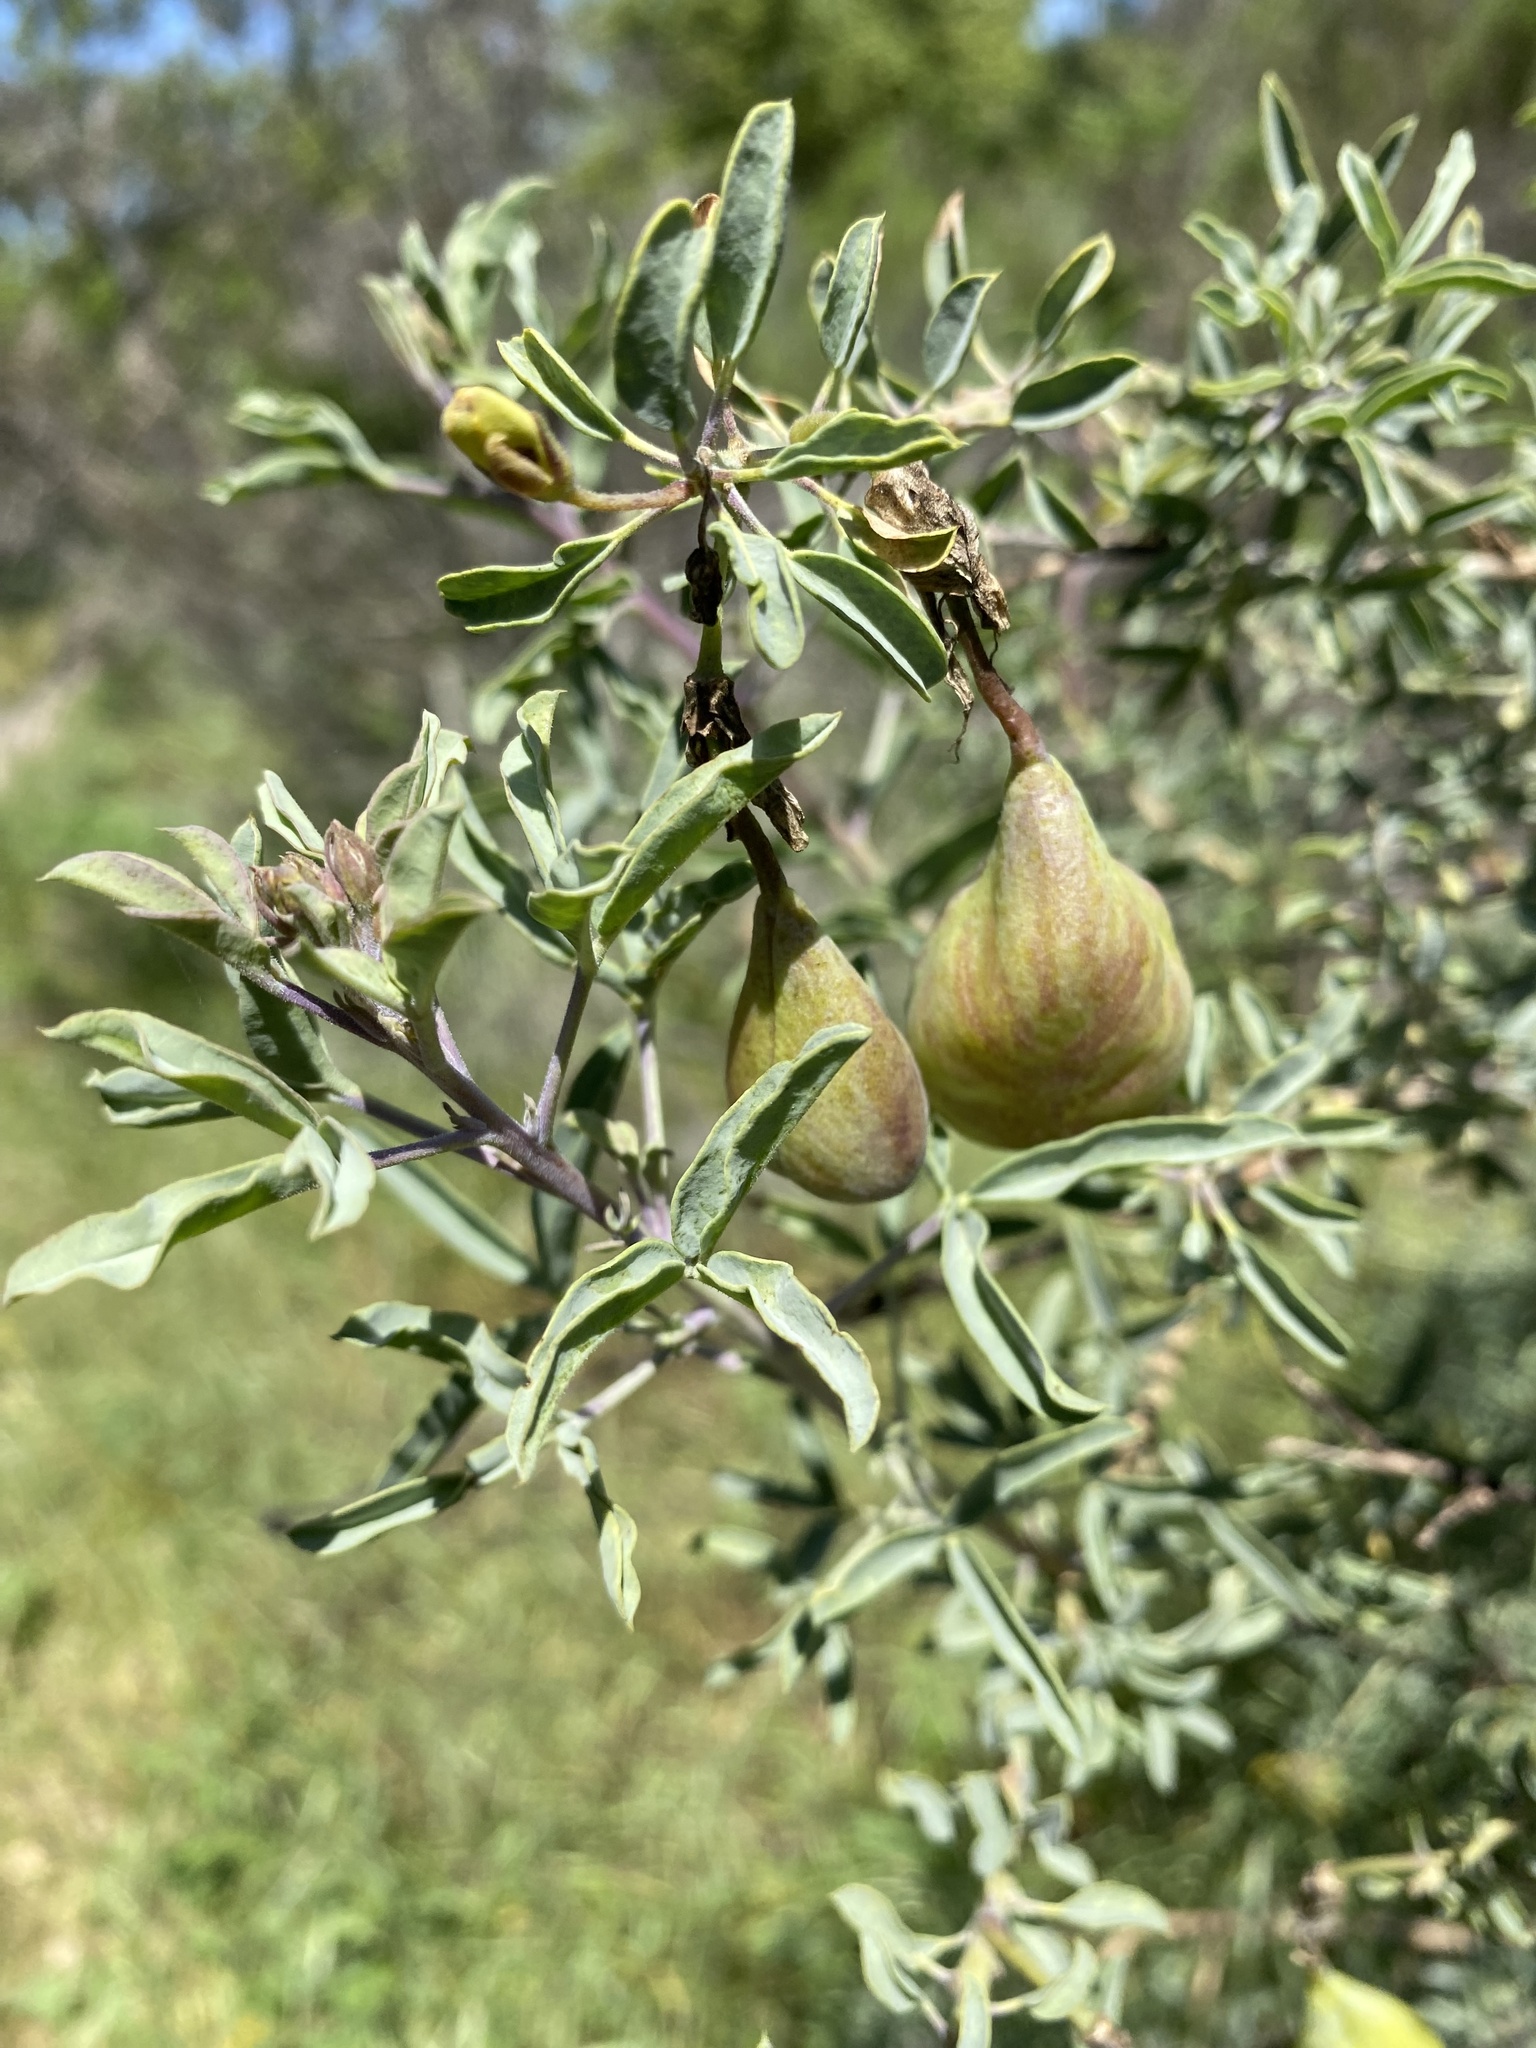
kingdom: Plantae
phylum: Tracheophyta
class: Magnoliopsida
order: Brassicales
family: Cleomaceae
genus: Cleomella
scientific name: Cleomella arborea
